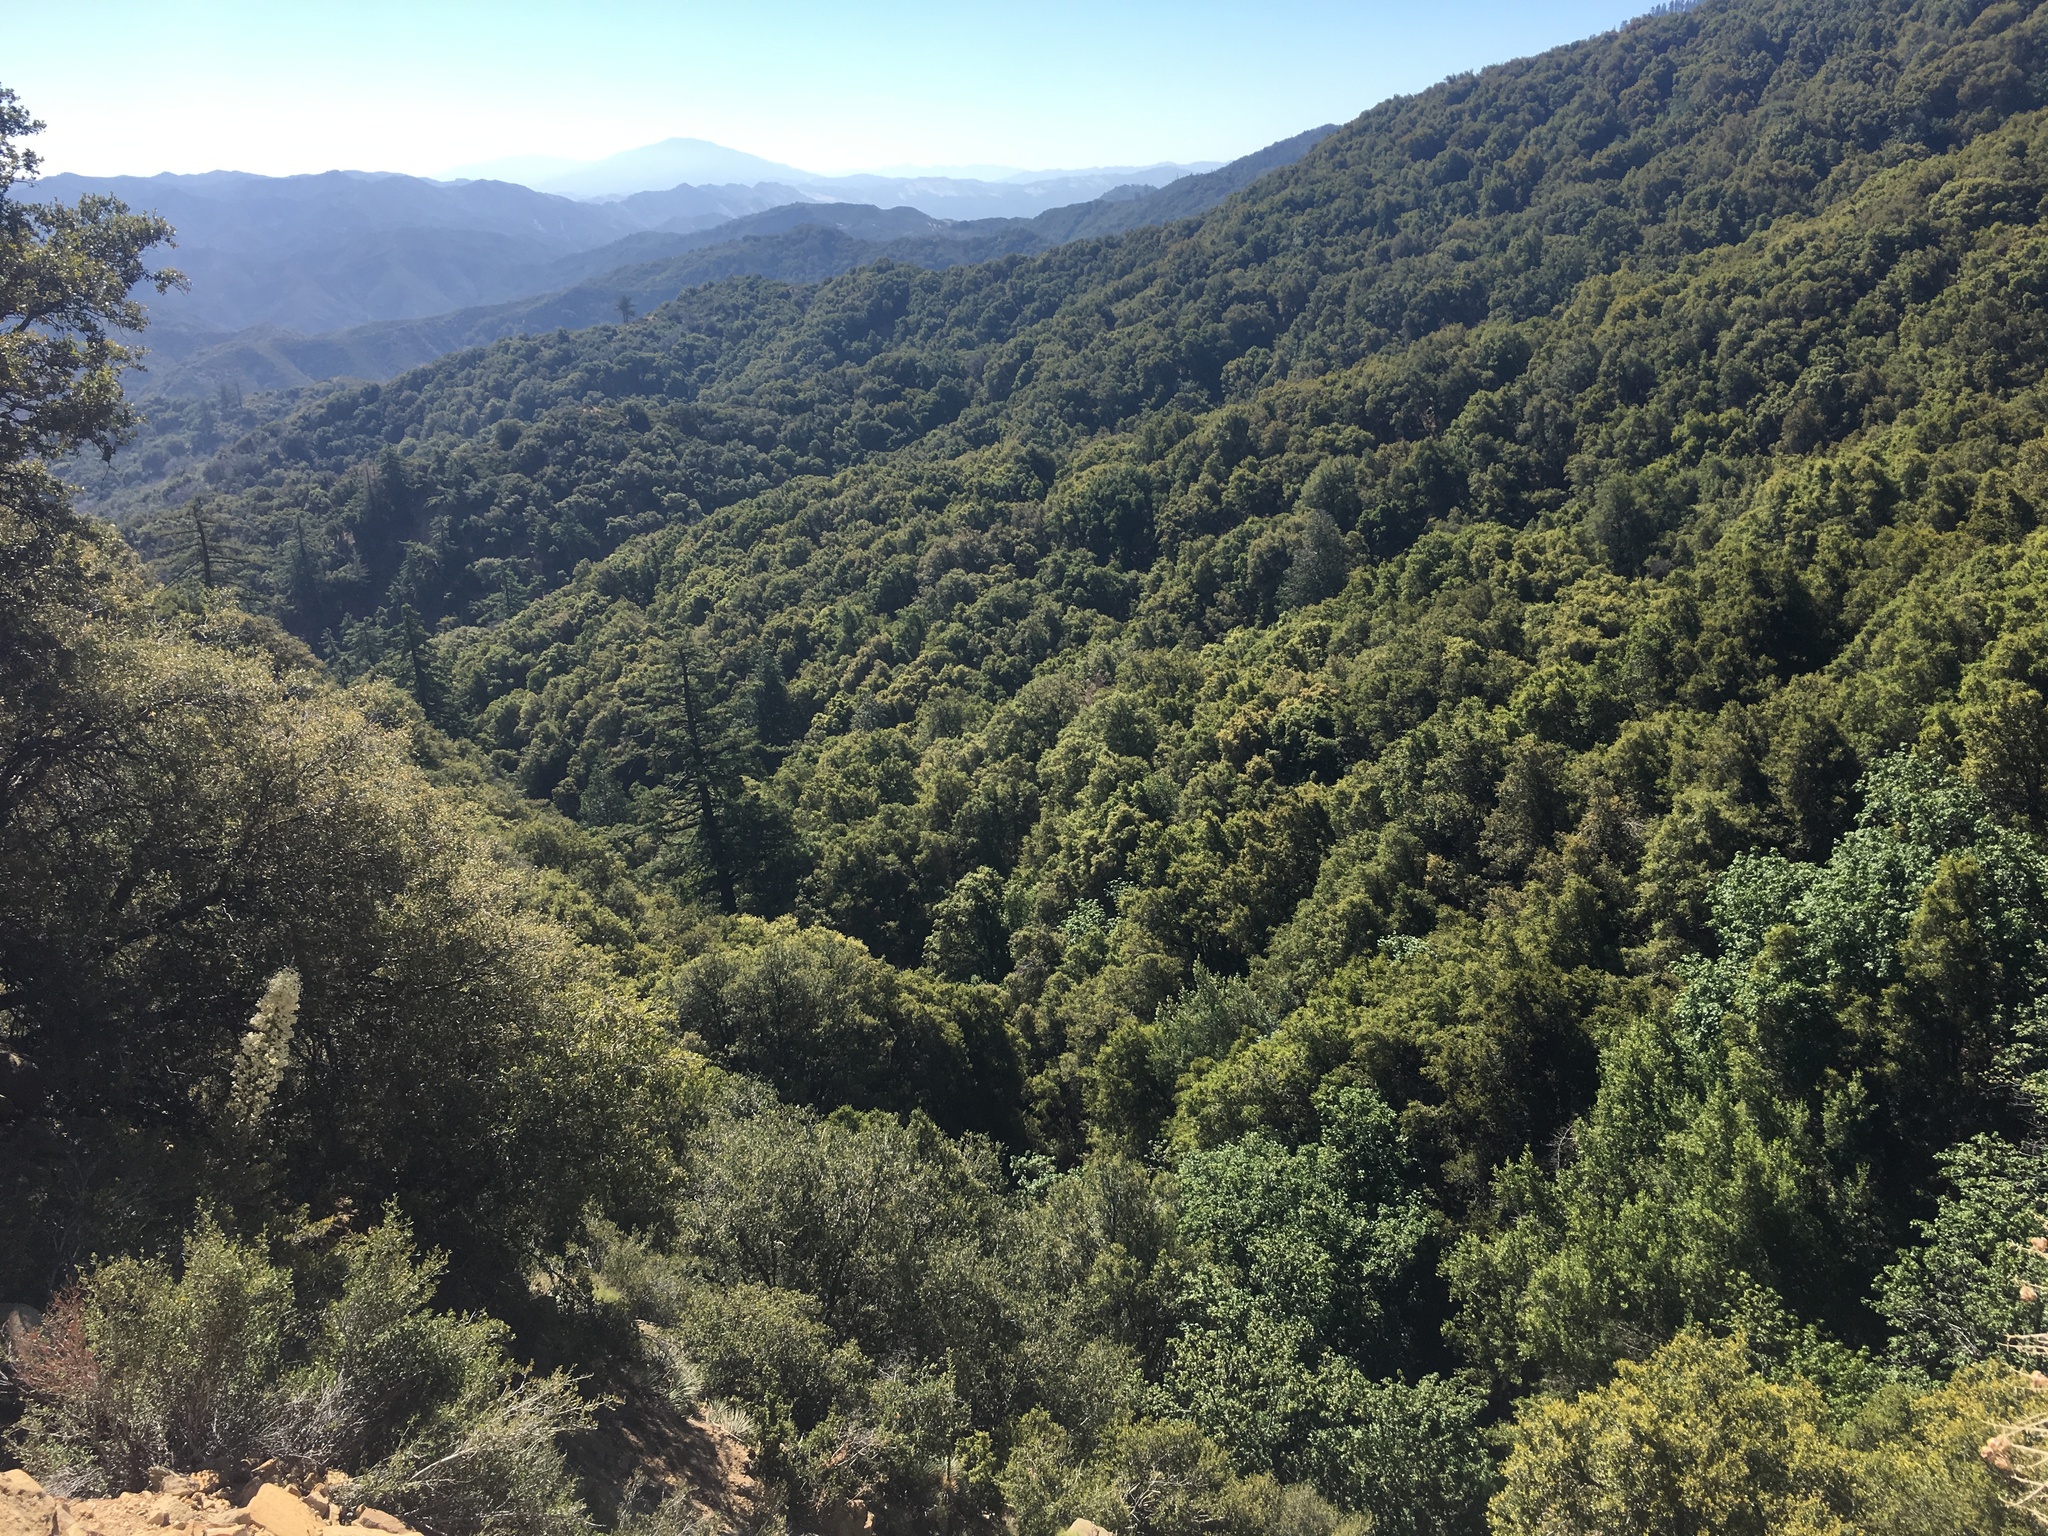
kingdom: Plantae
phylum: Tracheophyta
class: Pinopsida
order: Pinales
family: Pinaceae
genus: Pseudotsuga
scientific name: Pseudotsuga macrocarpa
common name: Big-cone douglas-fir
